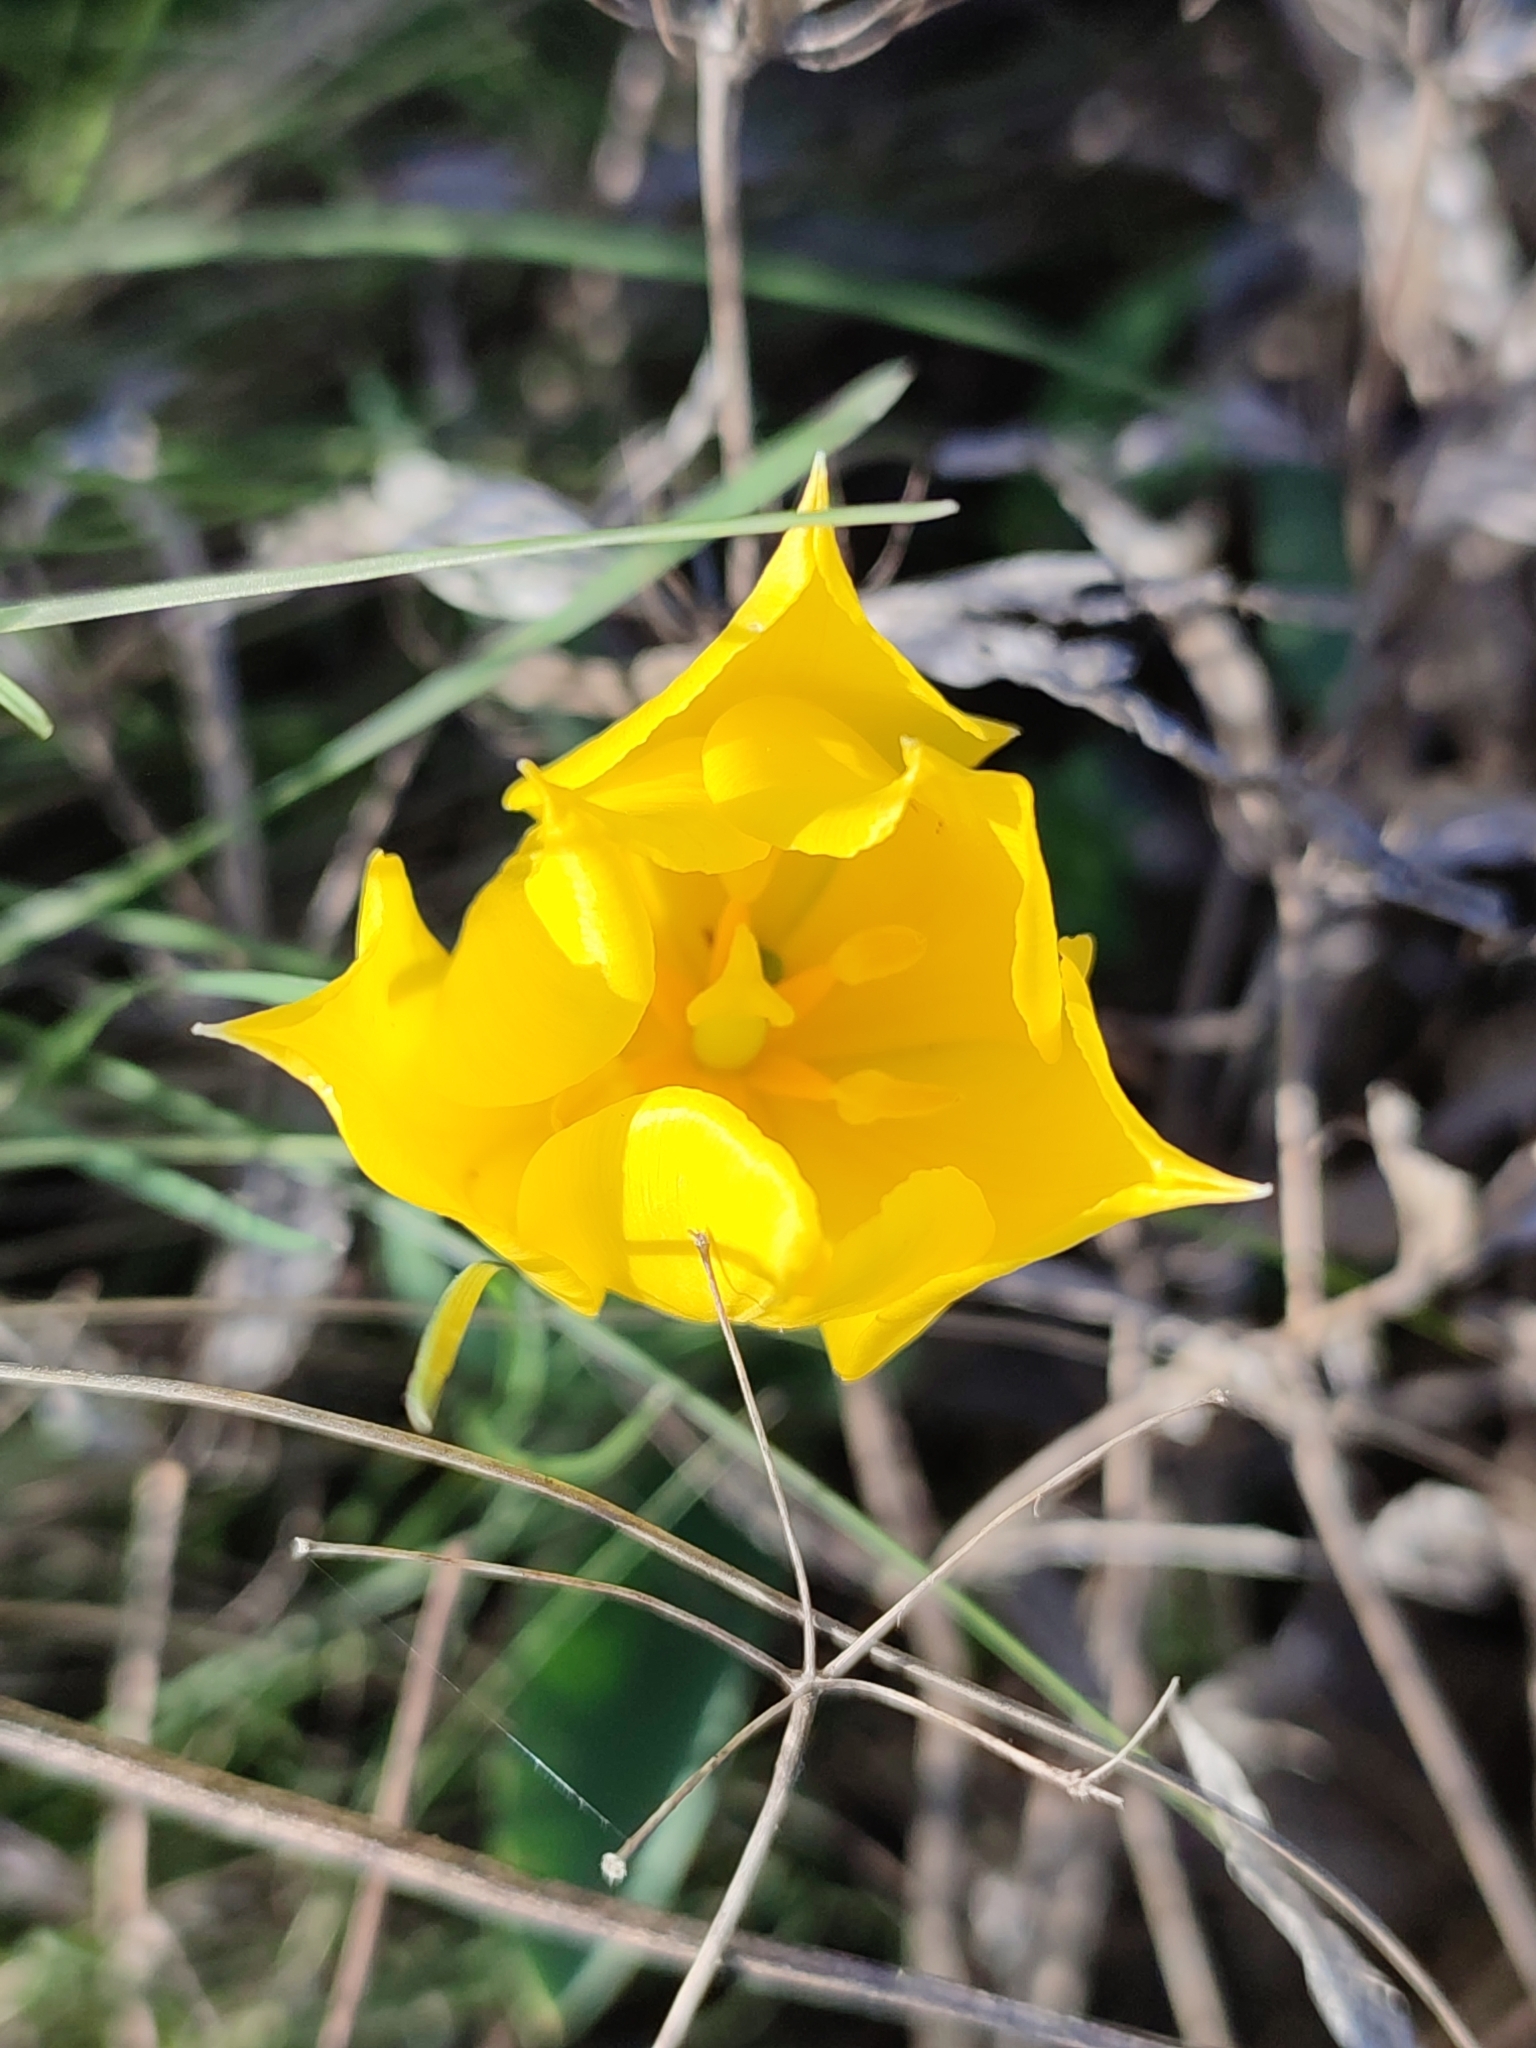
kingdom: Plantae
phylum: Tracheophyta
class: Liliopsida
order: Liliales
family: Liliaceae
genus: Tulipa
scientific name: Tulipa suaveolens
